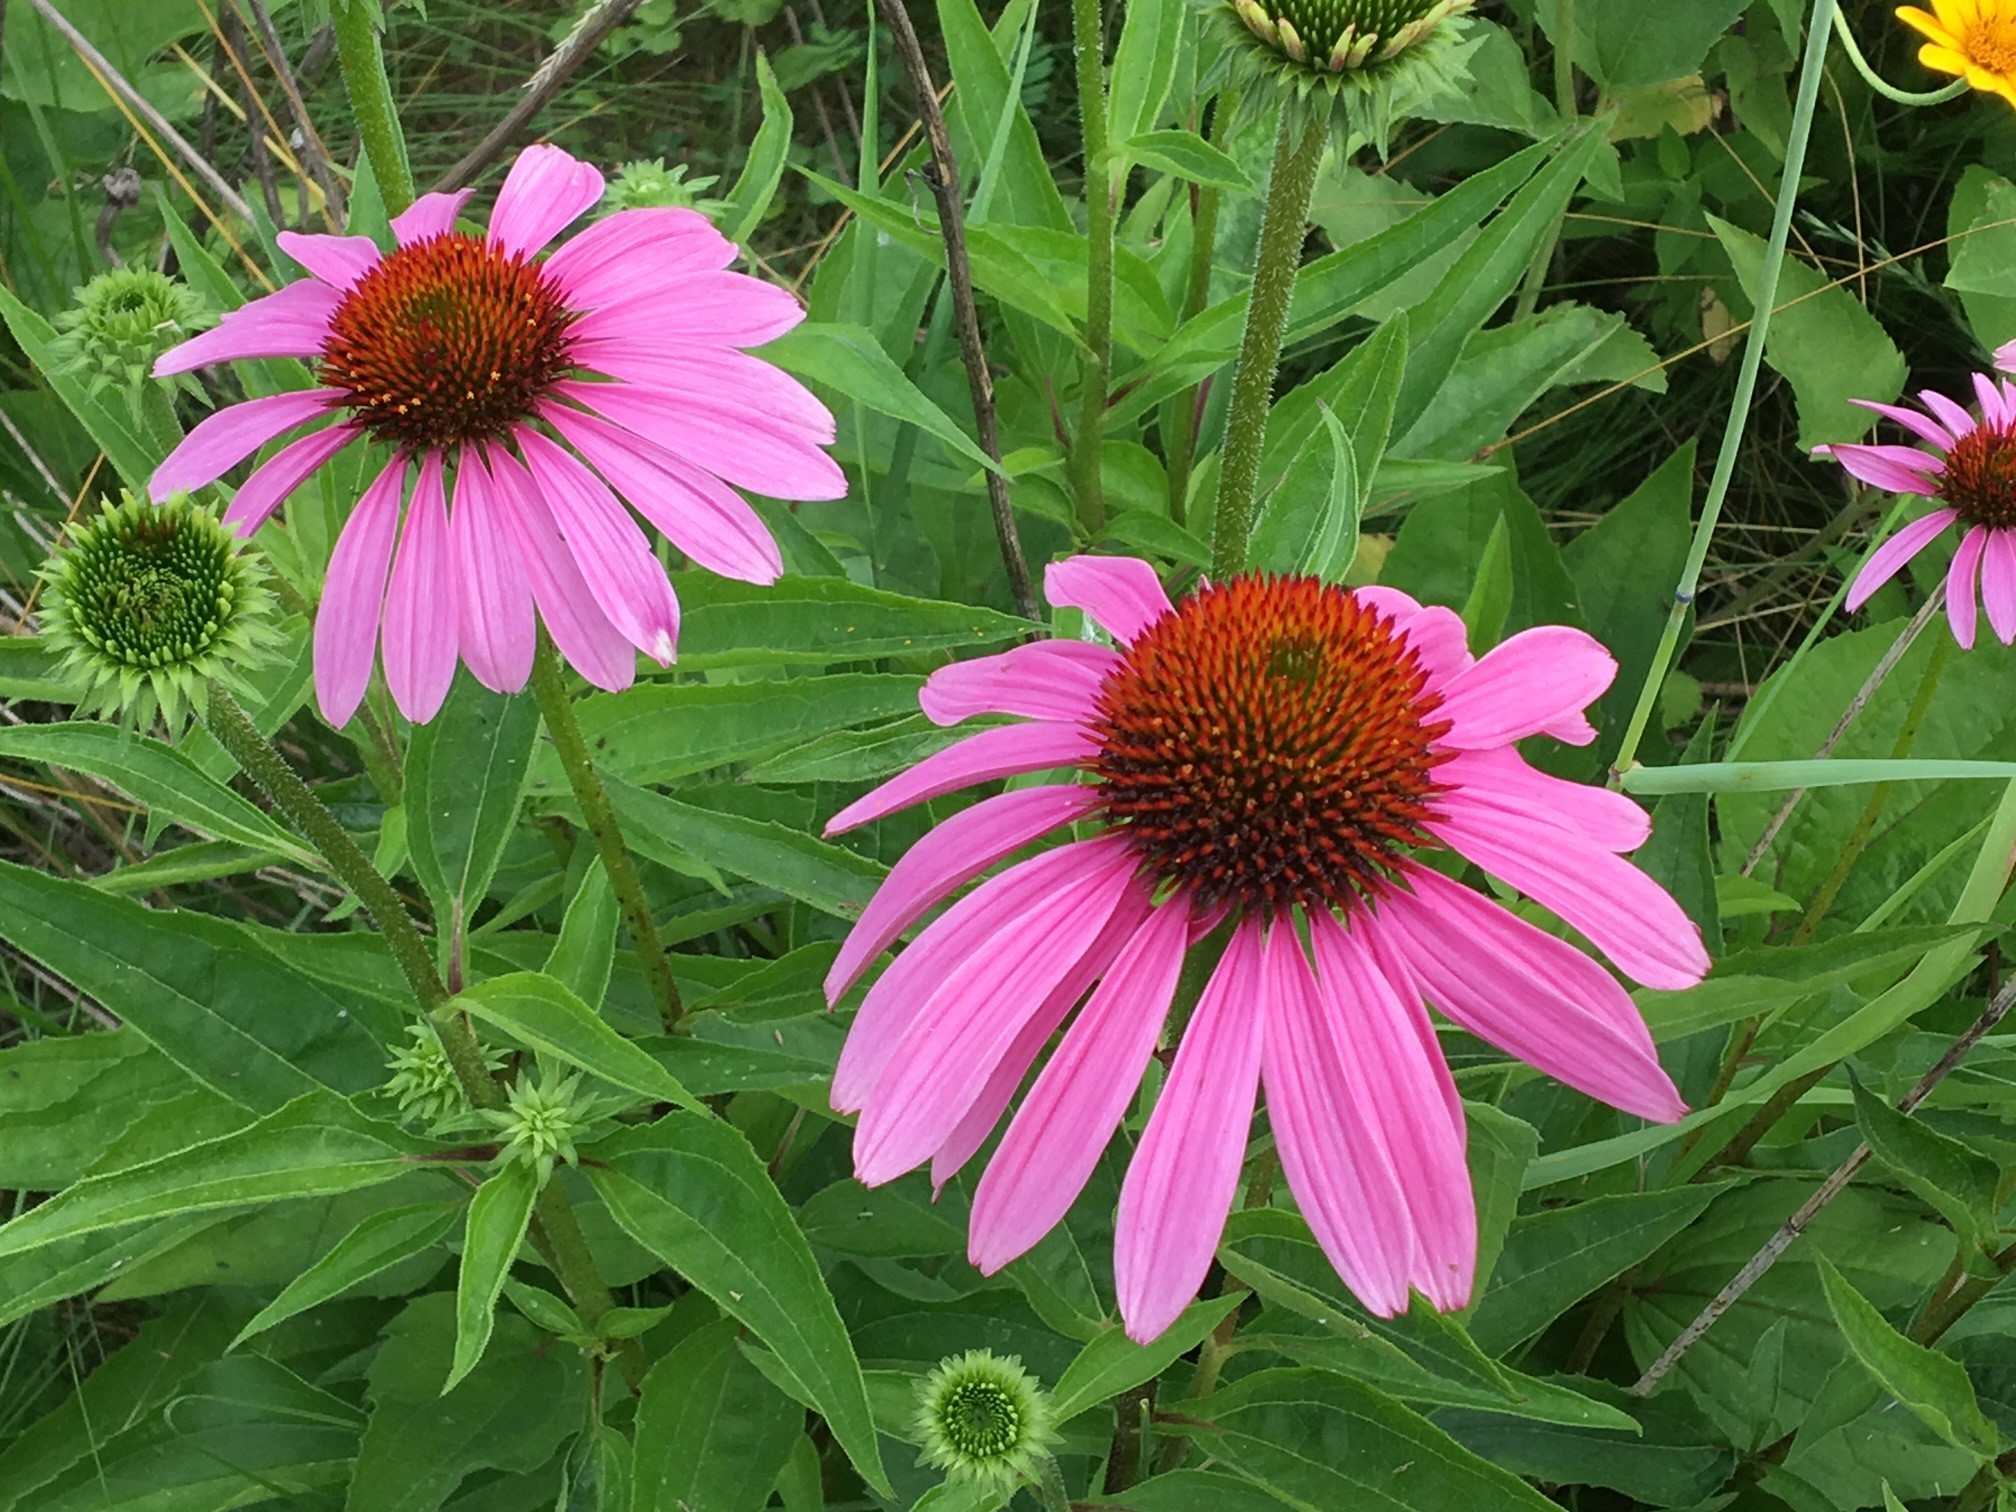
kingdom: Plantae
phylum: Tracheophyta
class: Magnoliopsida
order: Asterales
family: Asteraceae
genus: Echinacea
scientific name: Echinacea purpurea
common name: Broad-leaved purple coneflower
